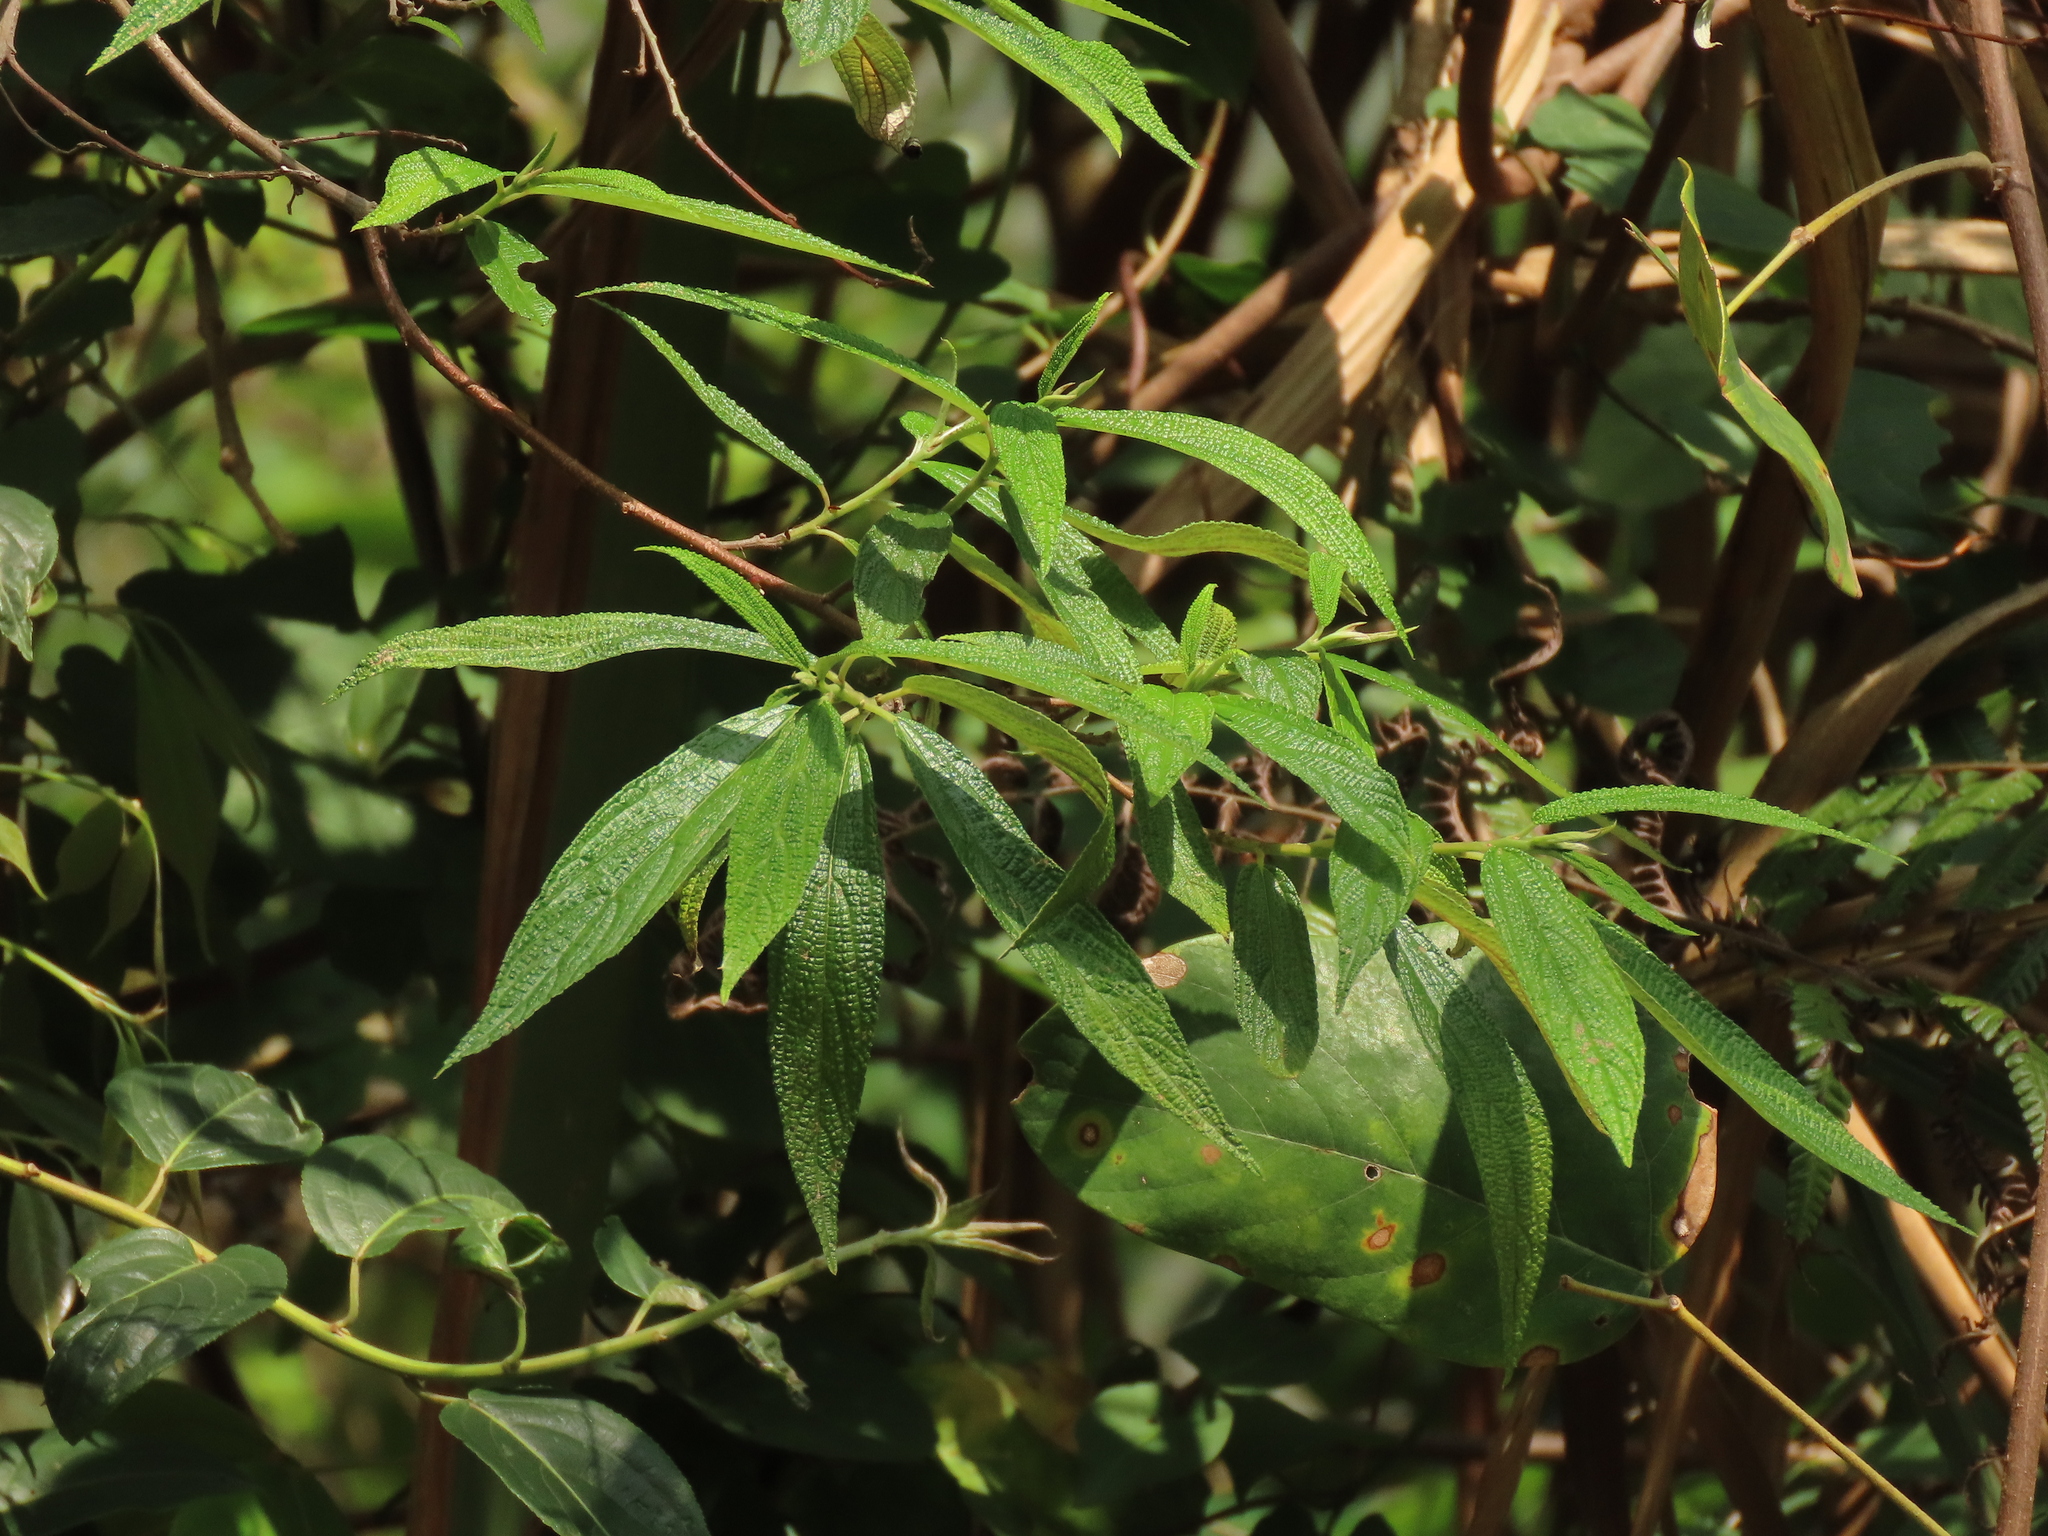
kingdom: Plantae
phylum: Tracheophyta
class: Magnoliopsida
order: Rosales
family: Urticaceae
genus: Debregeasia
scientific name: Debregeasia orientalis
